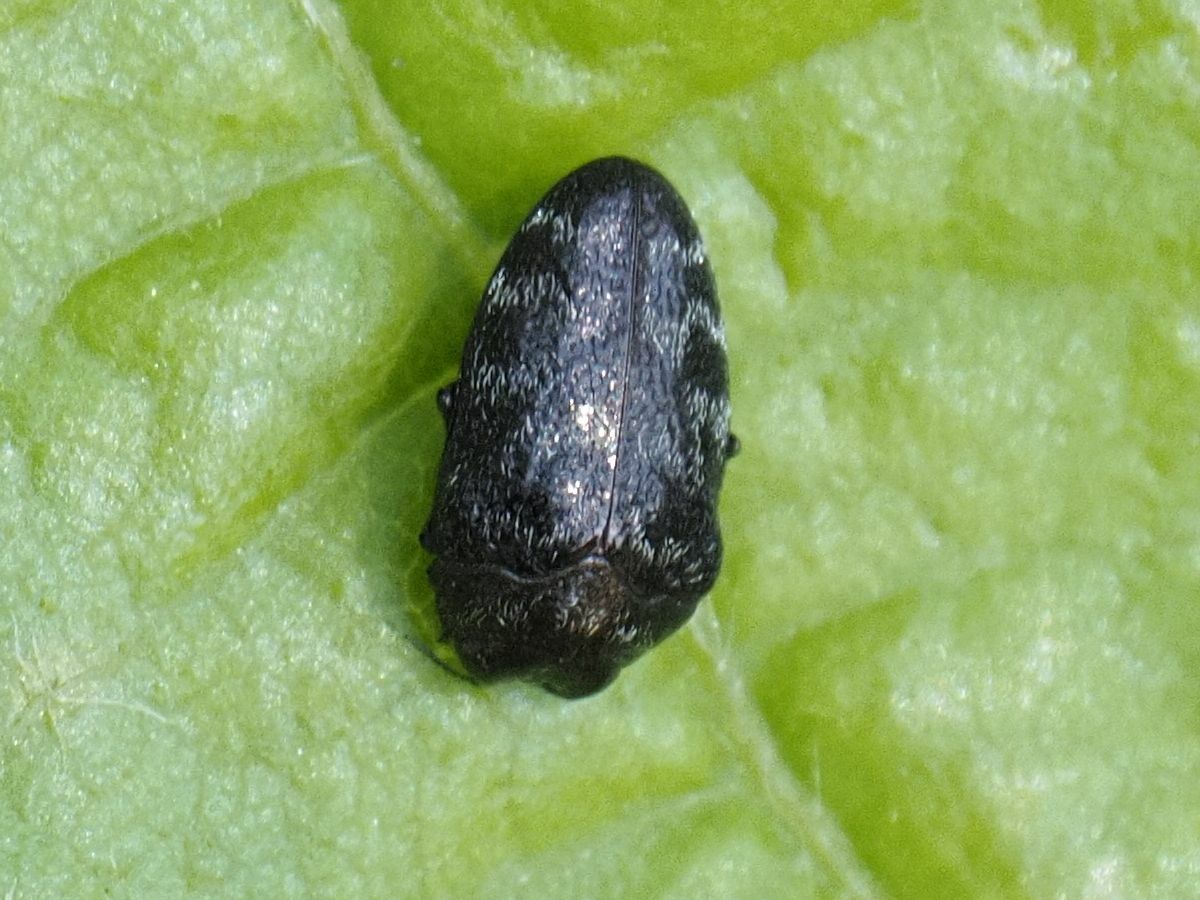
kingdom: Animalia
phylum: Arthropoda
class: Insecta
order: Coleoptera
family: Buprestidae
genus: Trachys
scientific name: Trachys minutus
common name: Metallic wood-boring beetle
